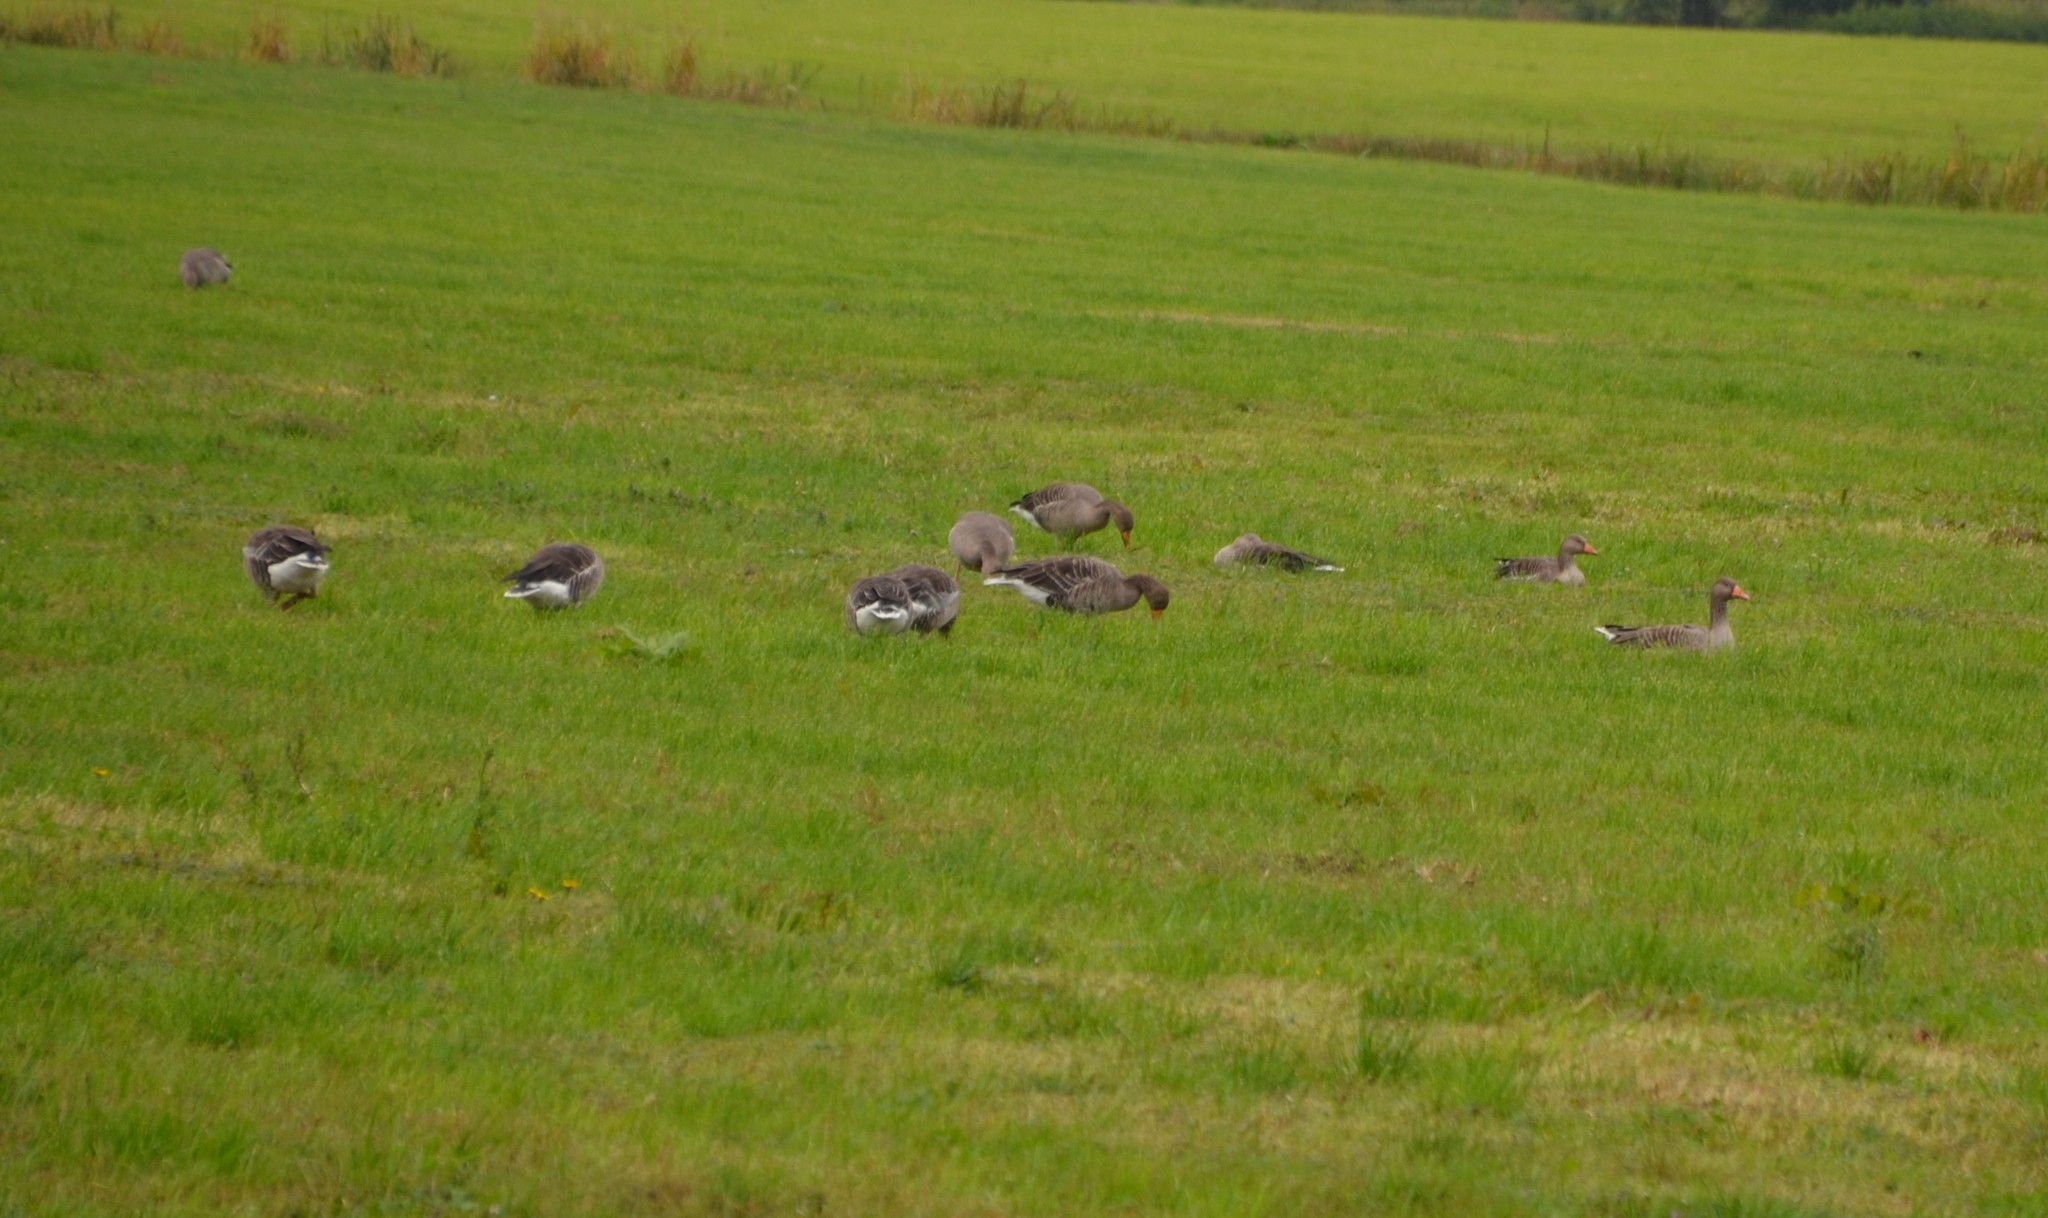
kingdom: Animalia
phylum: Chordata
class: Aves
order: Anseriformes
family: Anatidae
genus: Anser
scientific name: Anser anser
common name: Greylag goose
